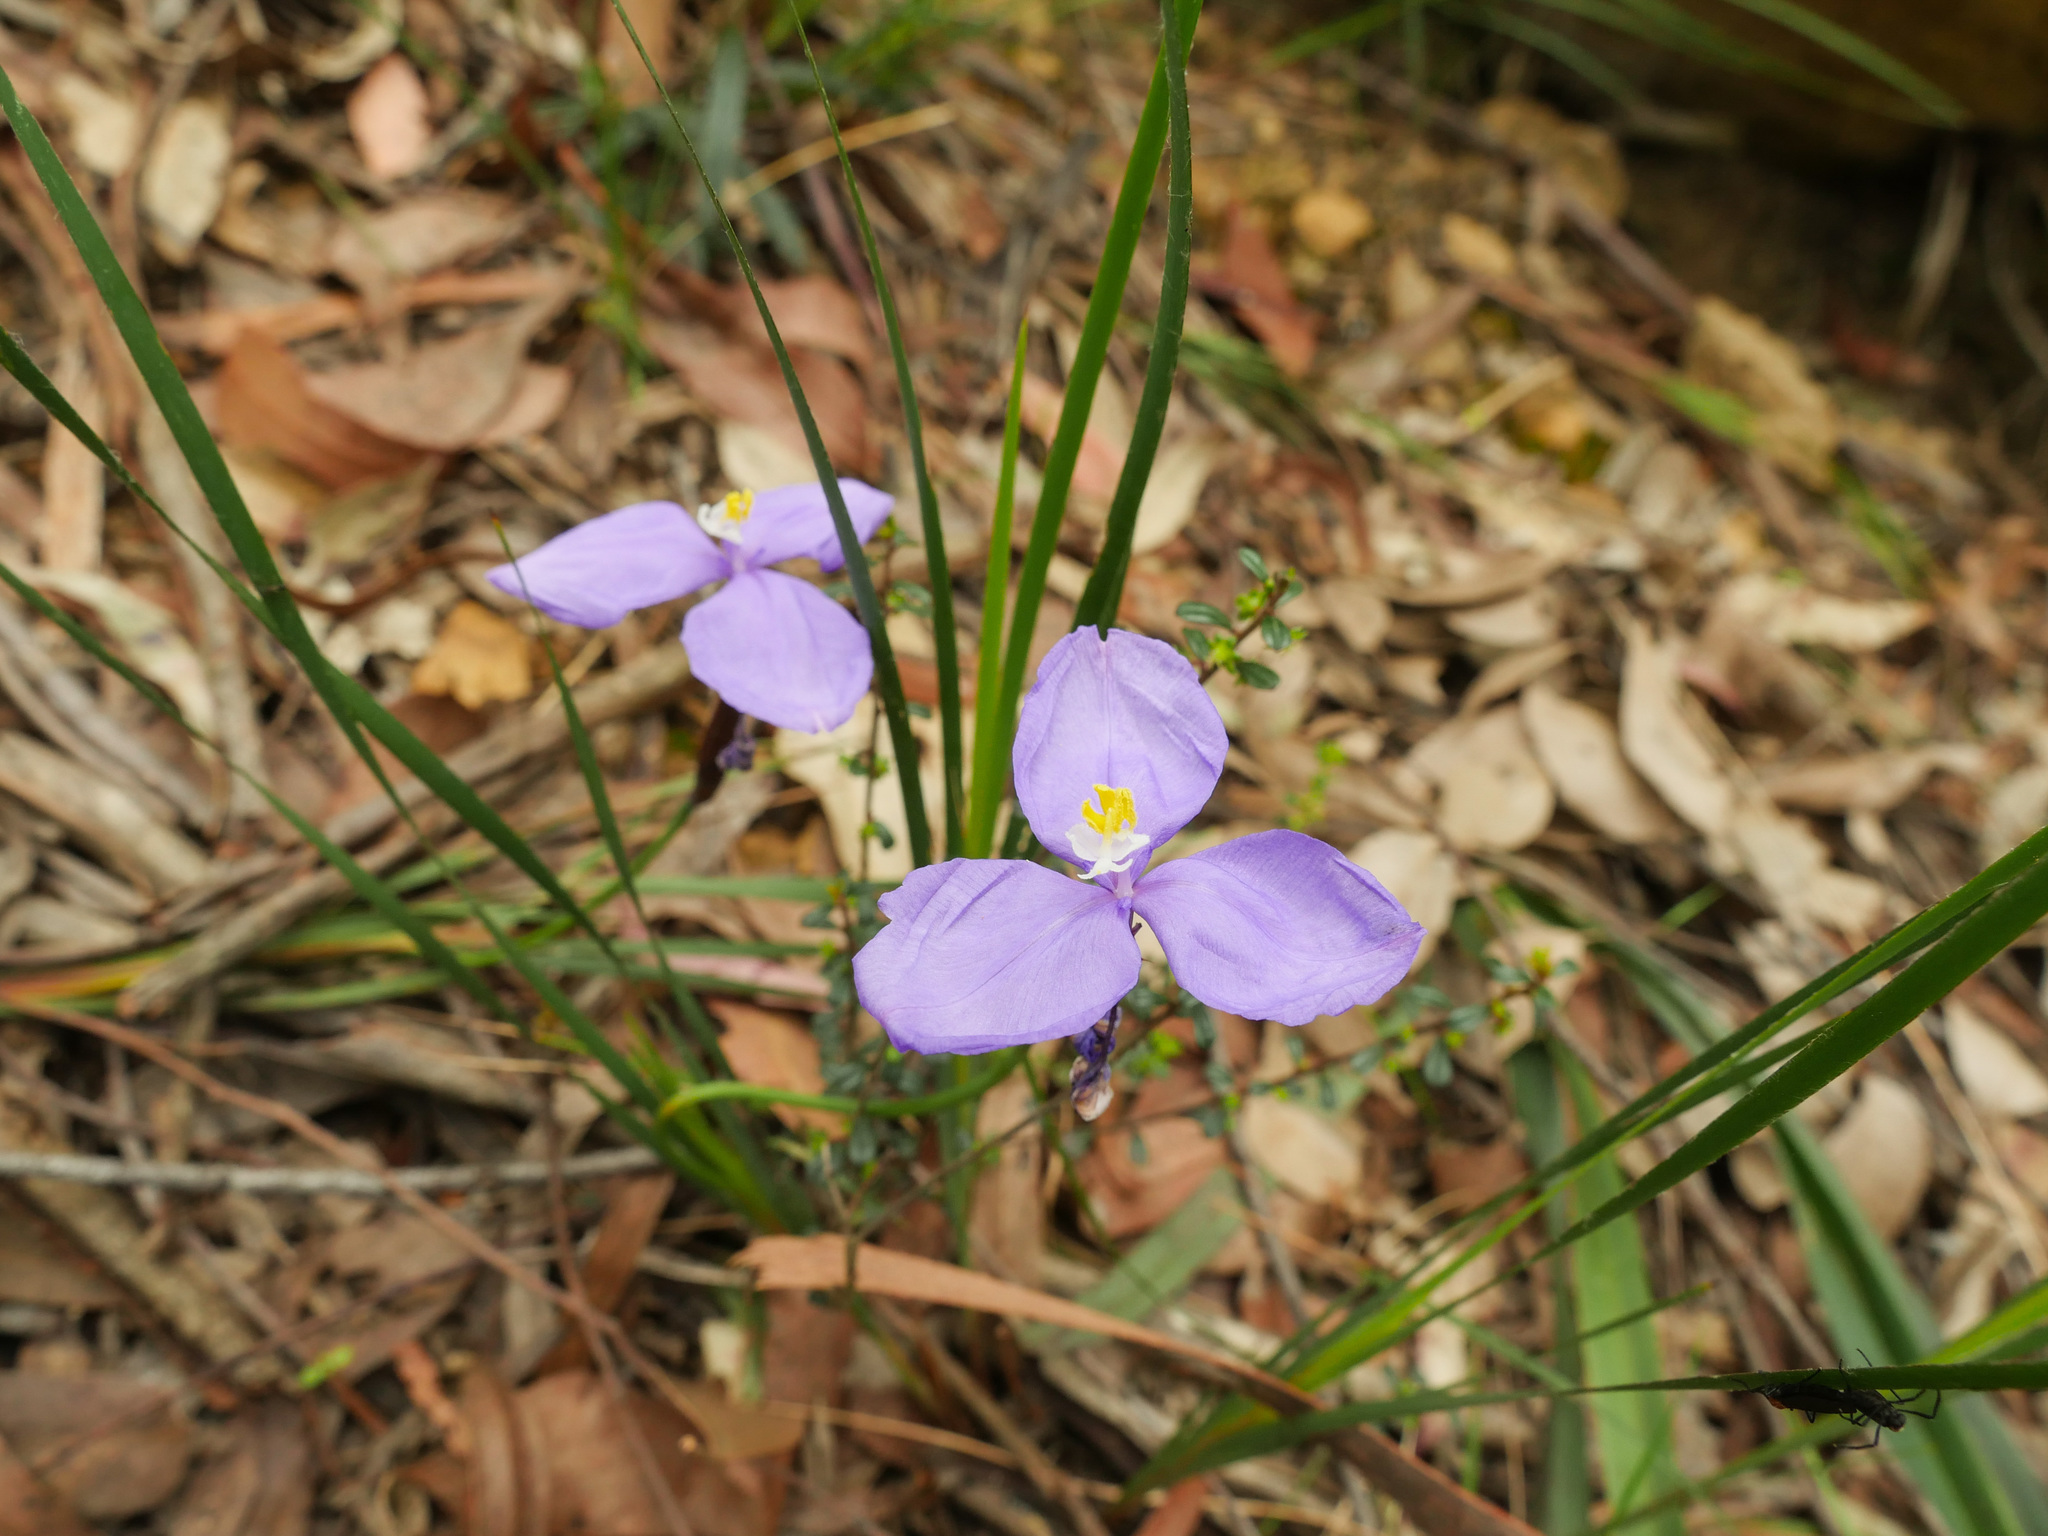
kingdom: Plantae
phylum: Tracheophyta
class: Liliopsida
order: Asparagales
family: Iridaceae
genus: Patersonia
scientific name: Patersonia glabrata
